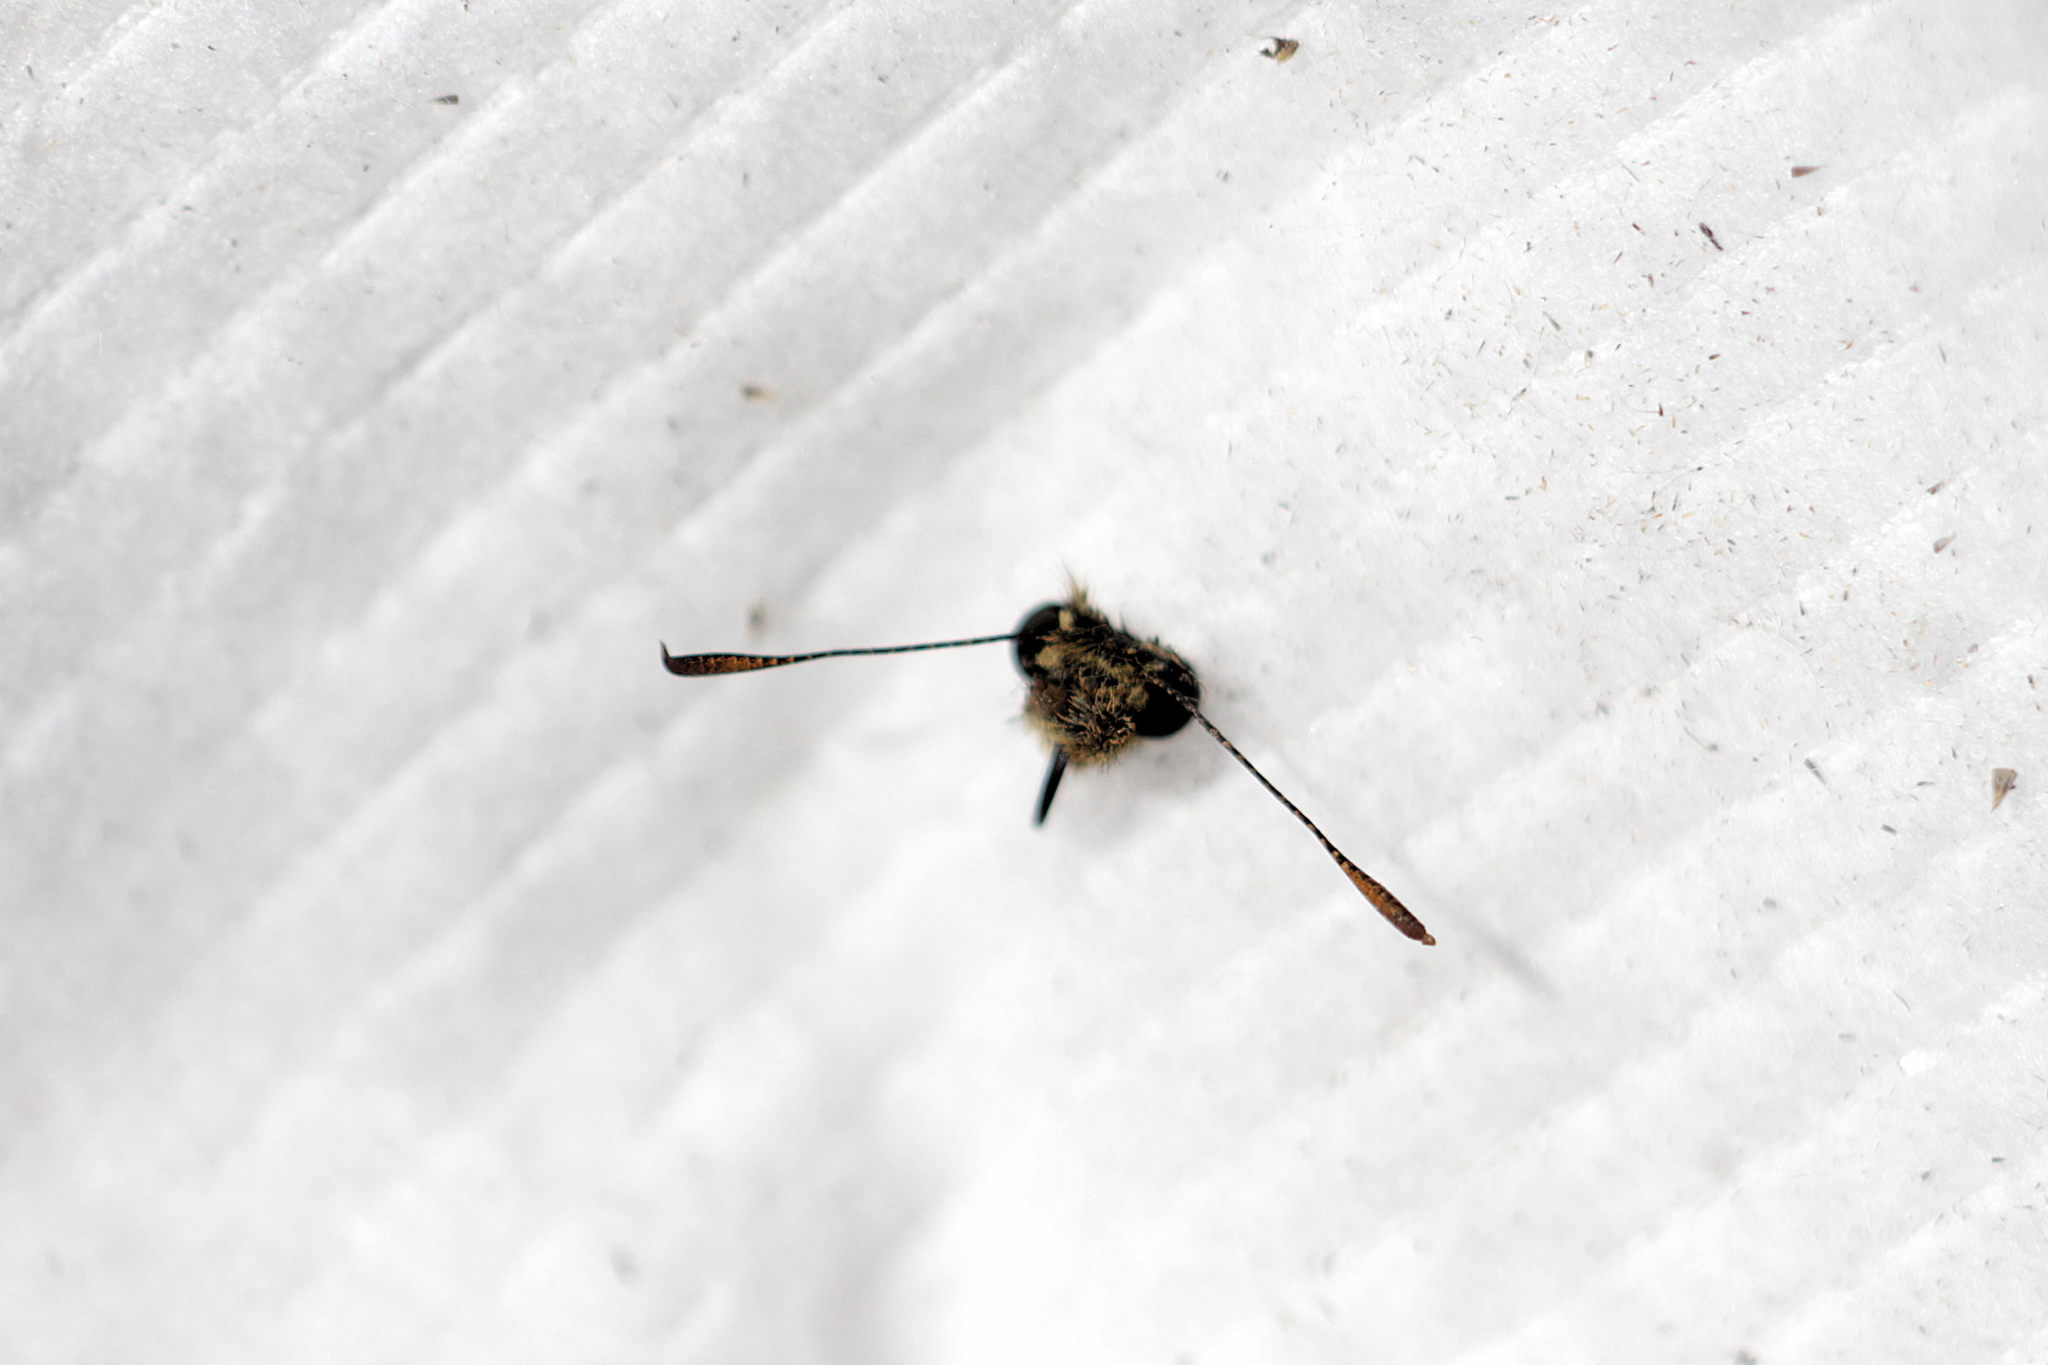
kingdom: Animalia
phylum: Arthropoda
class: Insecta
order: Lepidoptera
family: Hesperiidae
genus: Ochlodes
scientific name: Ochlodes venata
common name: Large skipper
